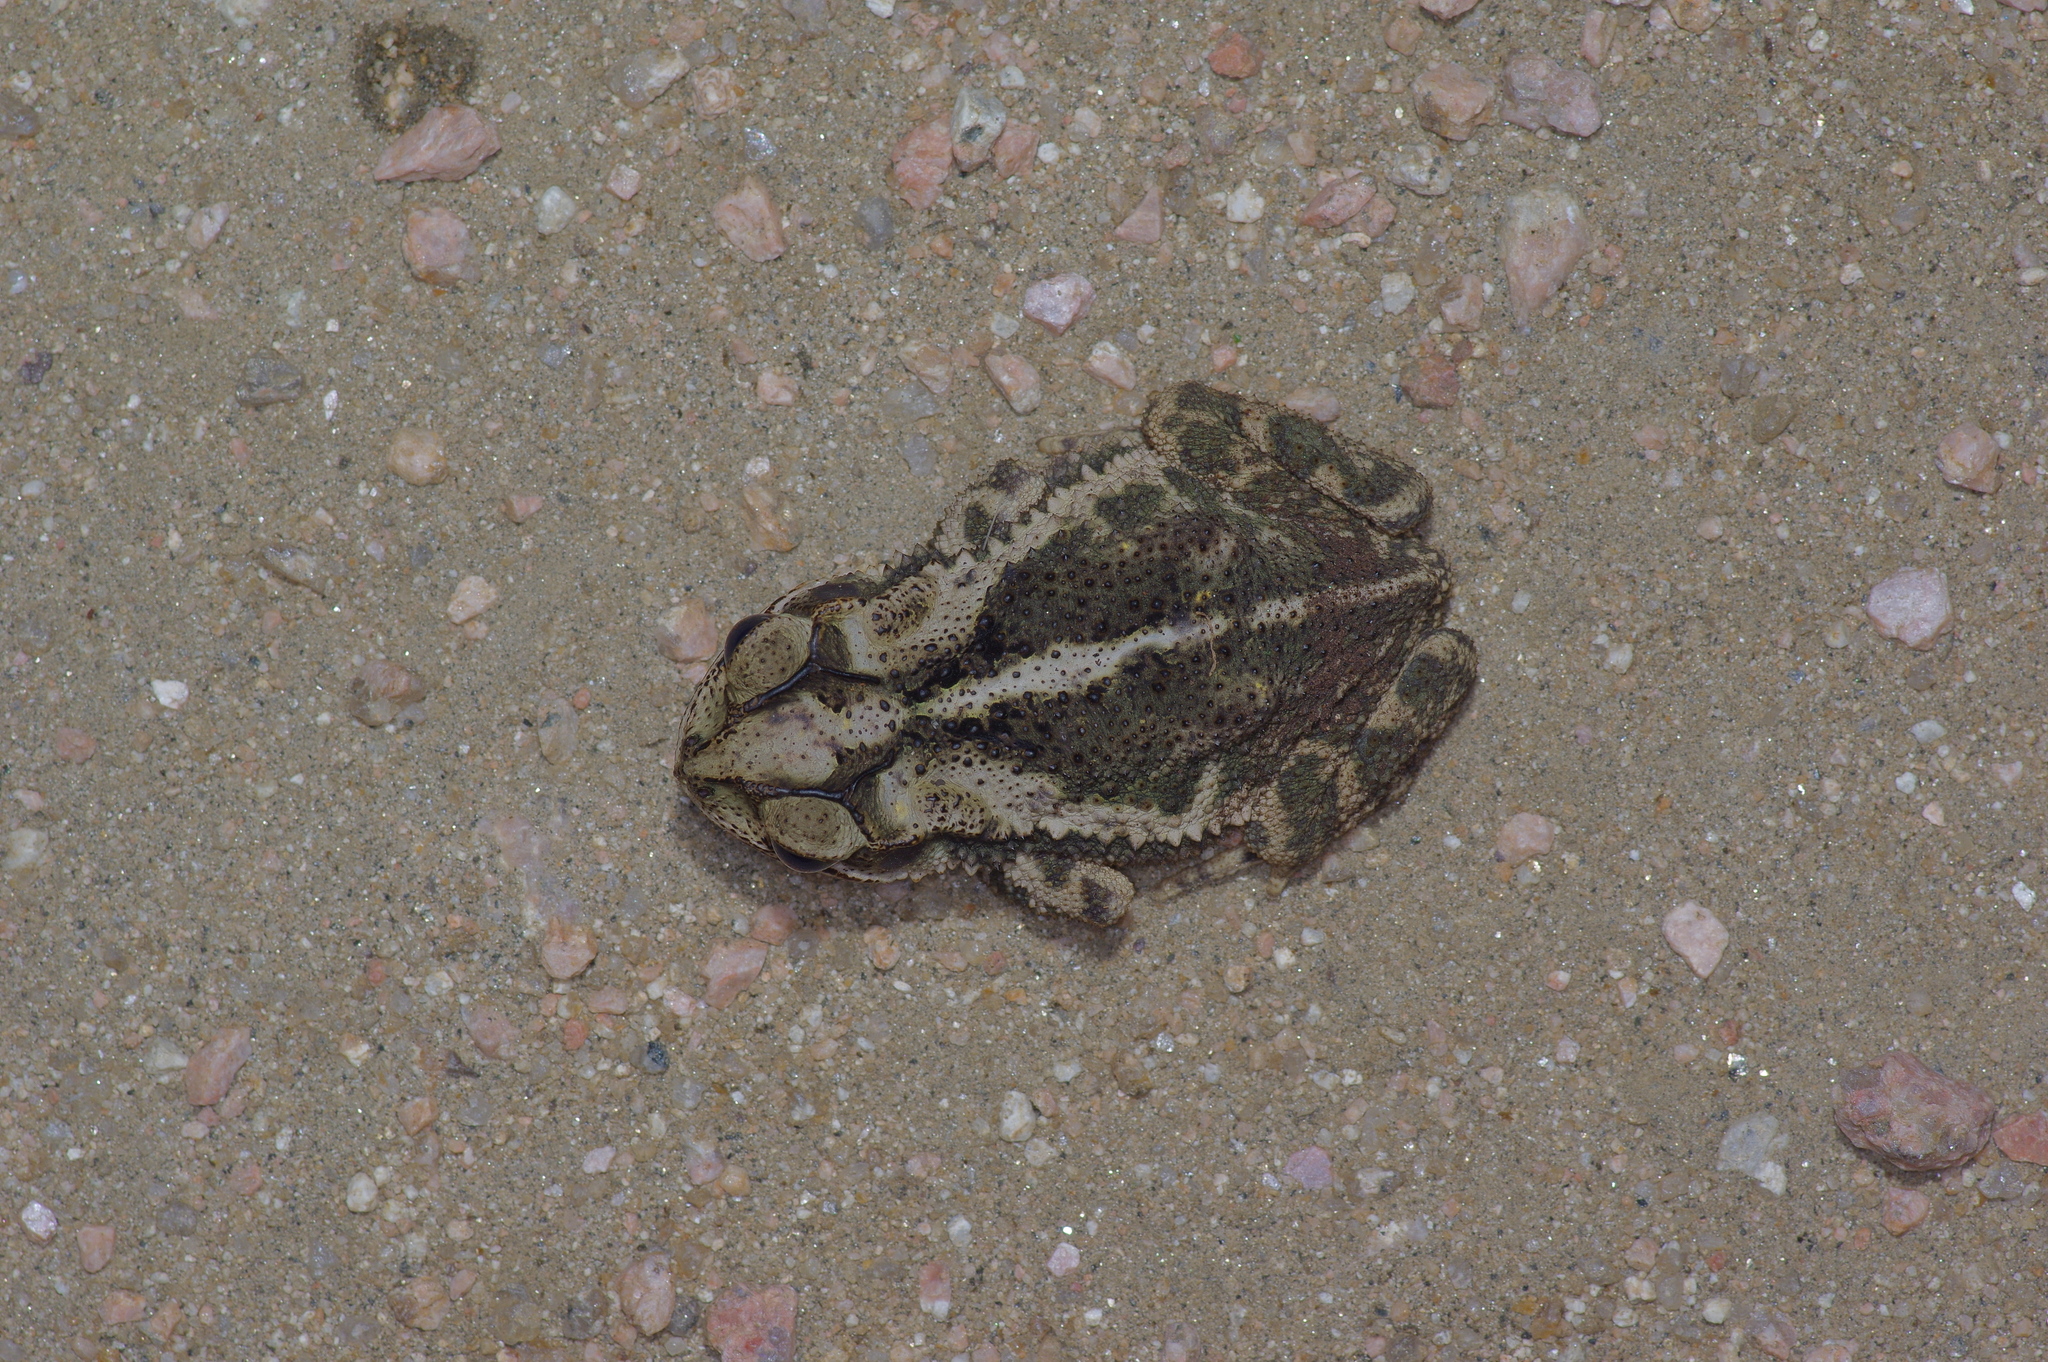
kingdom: Animalia
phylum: Chordata
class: Amphibia
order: Anura
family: Bufonidae
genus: Incilius
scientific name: Incilius nebulifer
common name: Gulf coast toad
